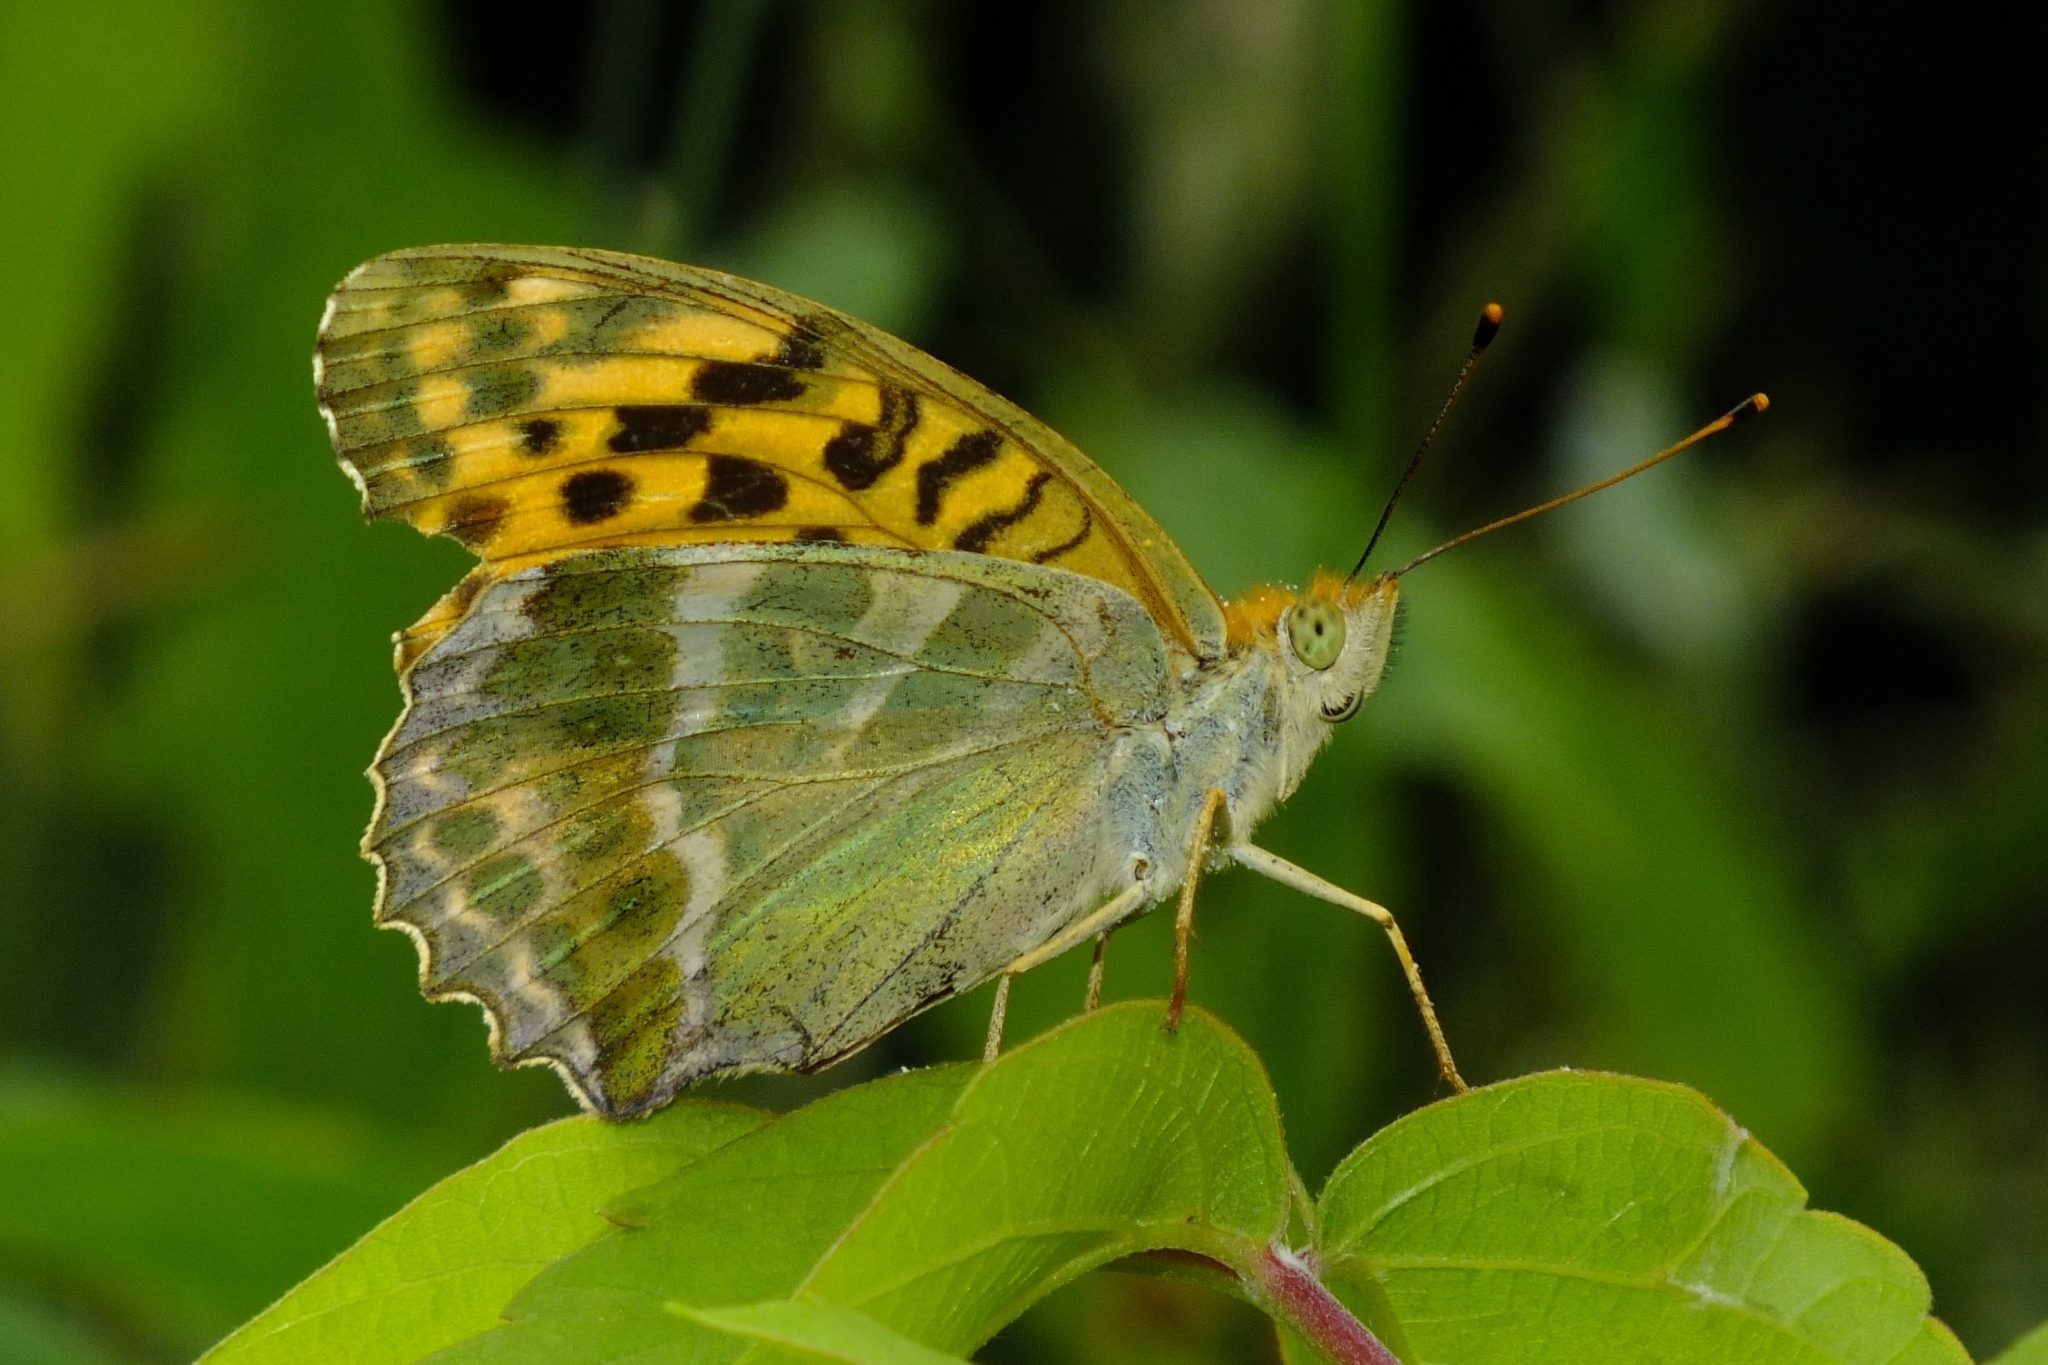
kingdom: Animalia
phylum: Arthropoda
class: Insecta
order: Lepidoptera
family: Nymphalidae
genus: Argynnis
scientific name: Argynnis paphia
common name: Silver-washed fritillary
